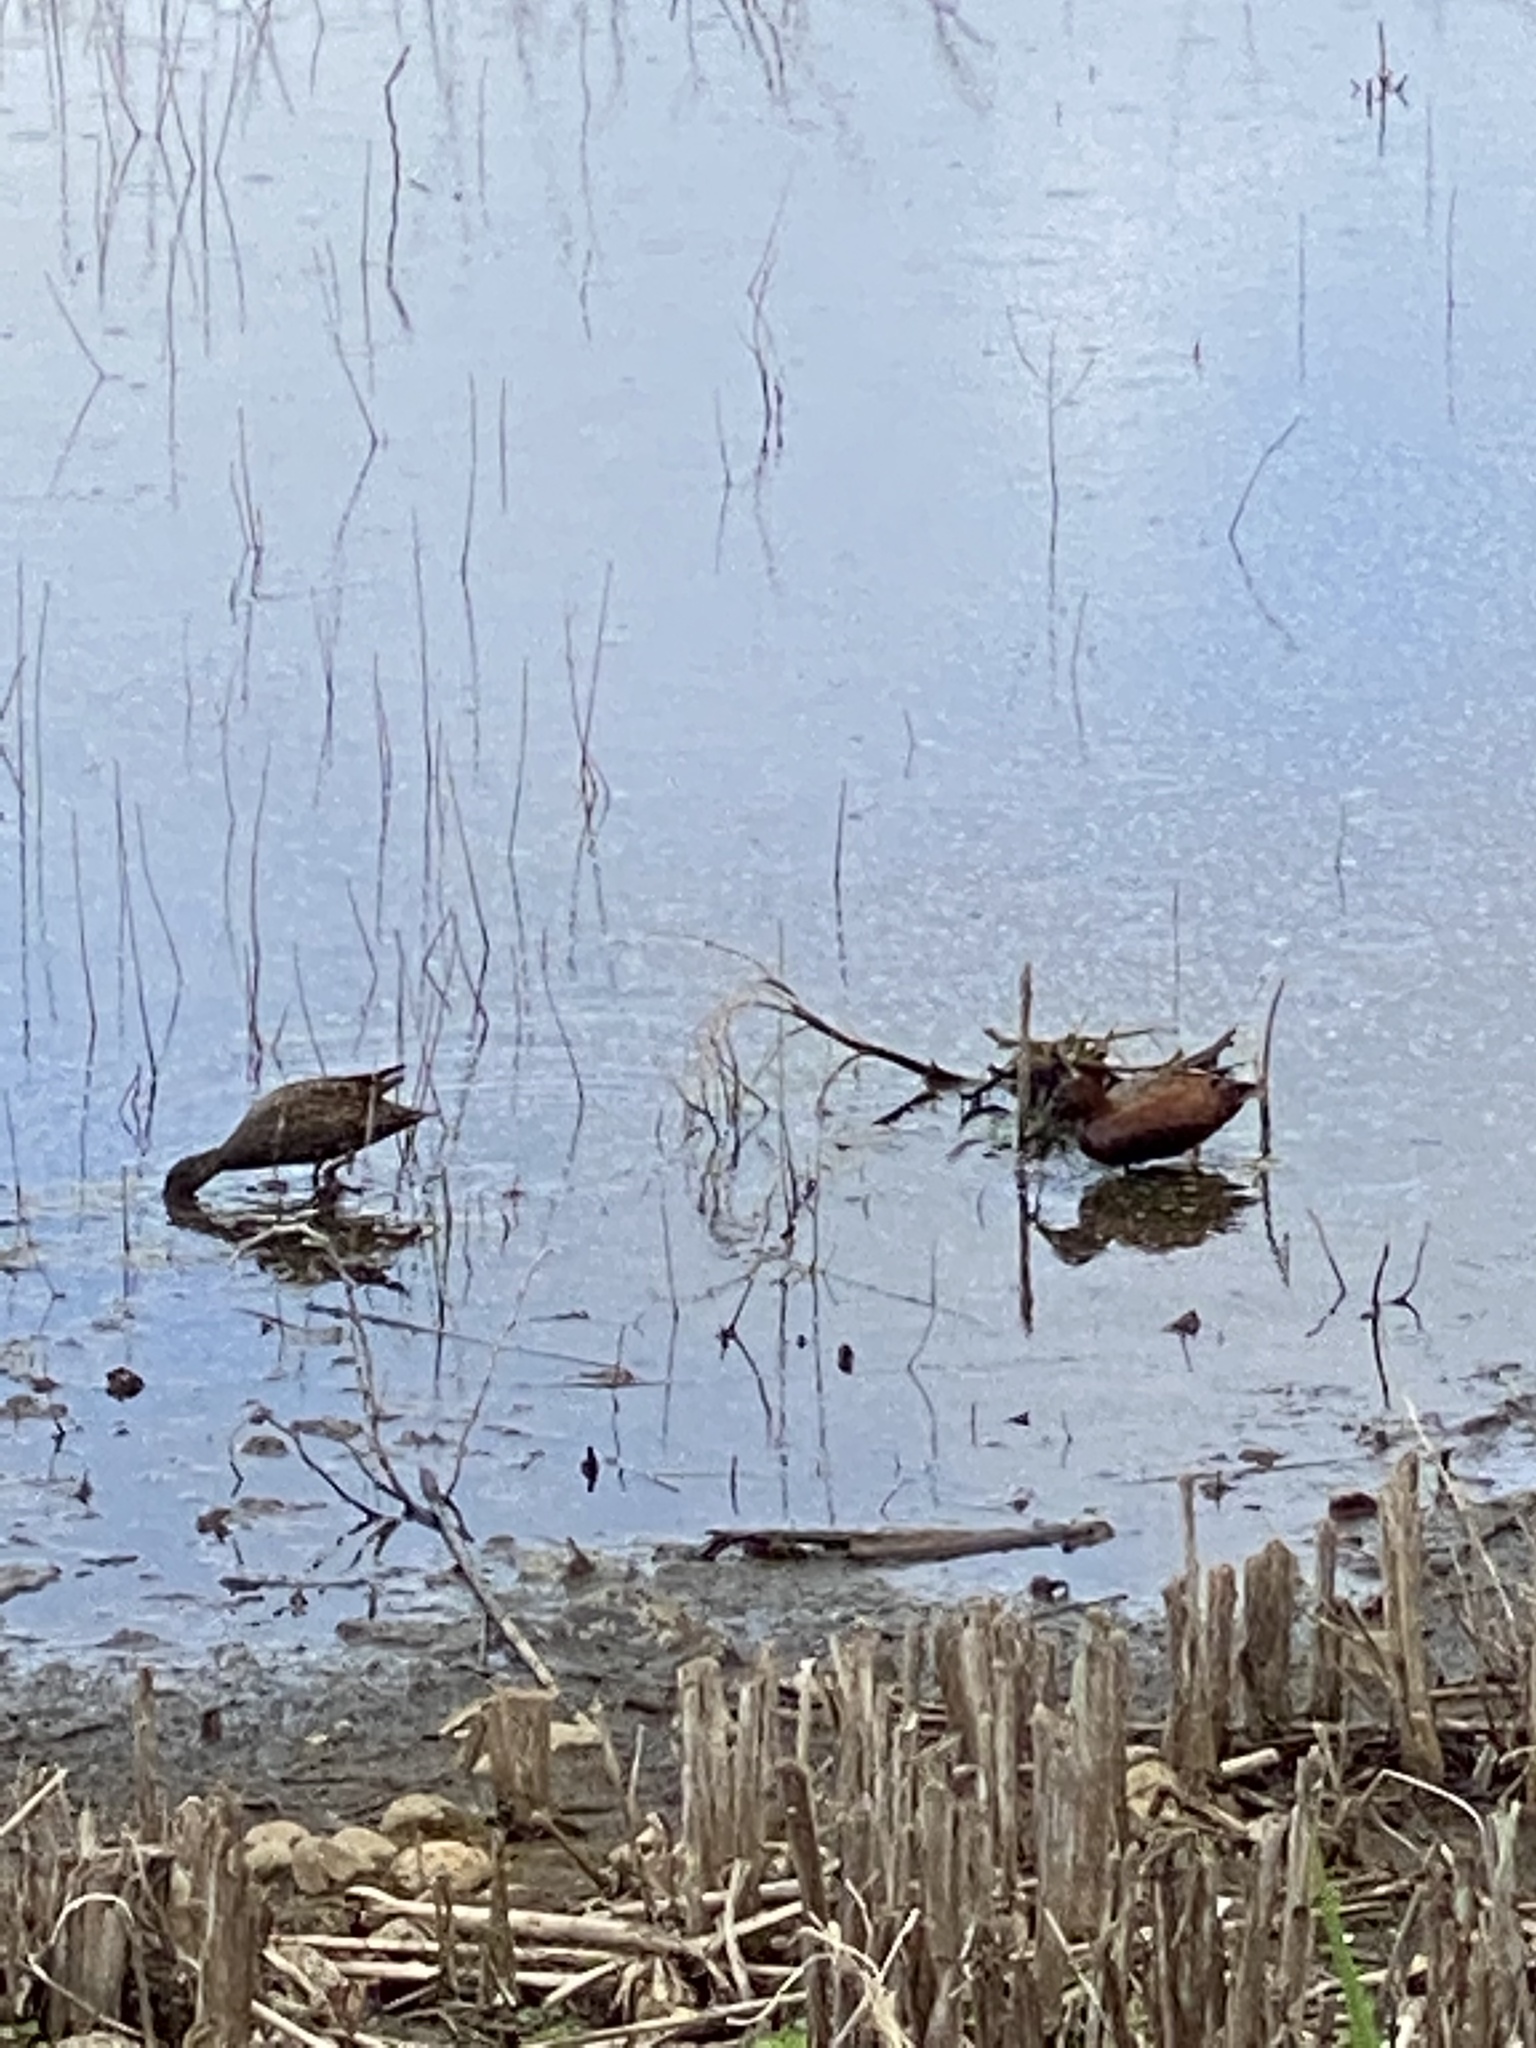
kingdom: Animalia
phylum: Chordata
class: Aves
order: Anseriformes
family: Anatidae
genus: Spatula
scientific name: Spatula cyanoptera
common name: Cinnamon teal
